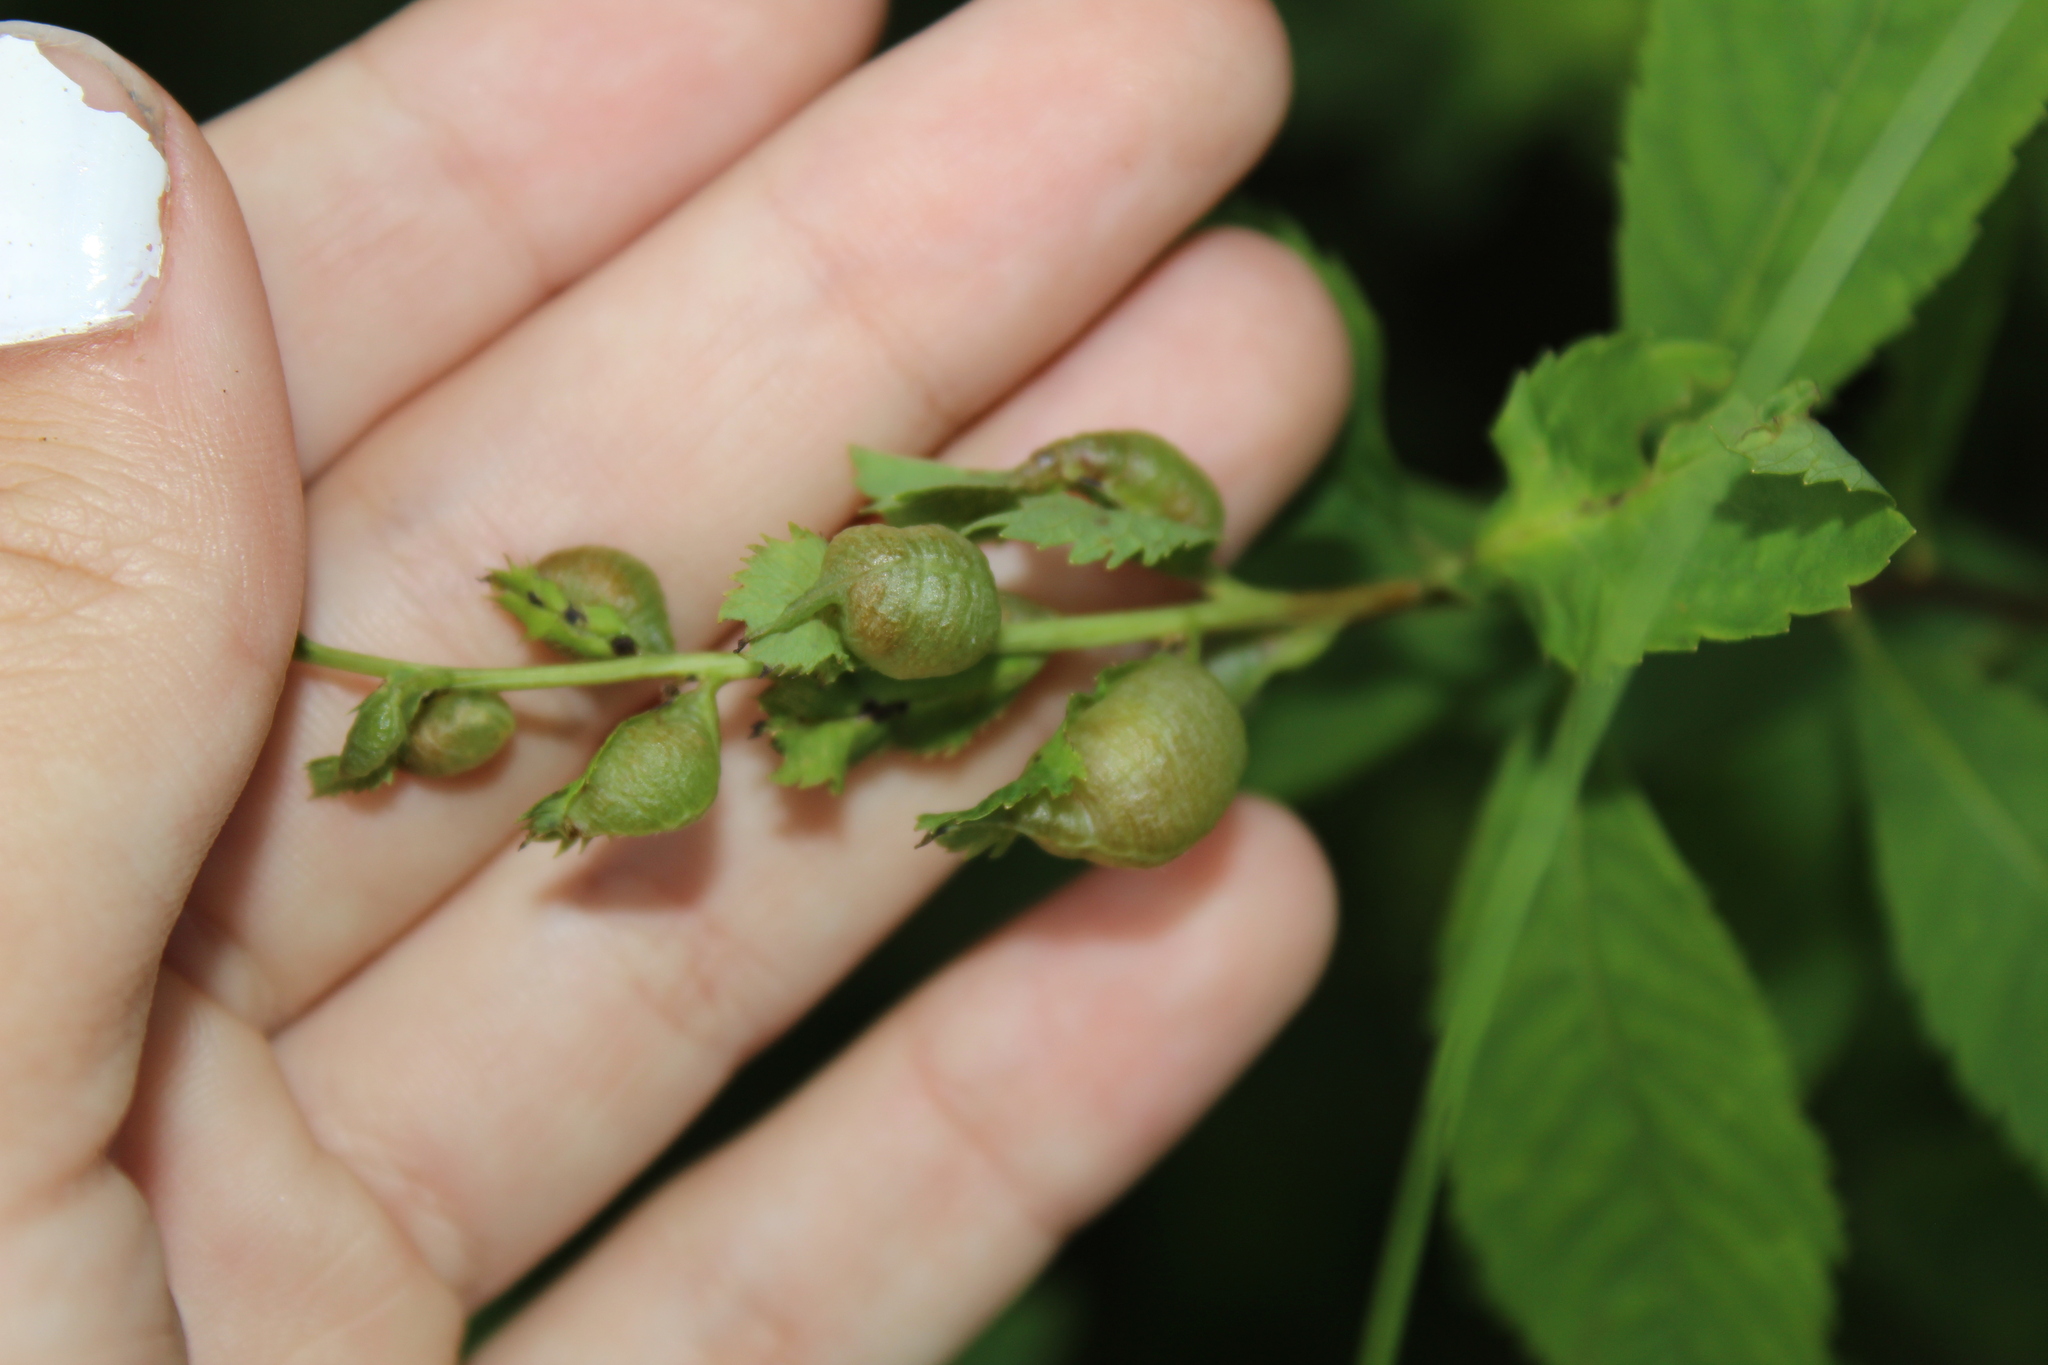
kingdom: Animalia
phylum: Arthropoda
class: Insecta
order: Diptera
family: Cecidomyiidae
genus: Dasineura
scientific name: Dasineura salicifoliae
